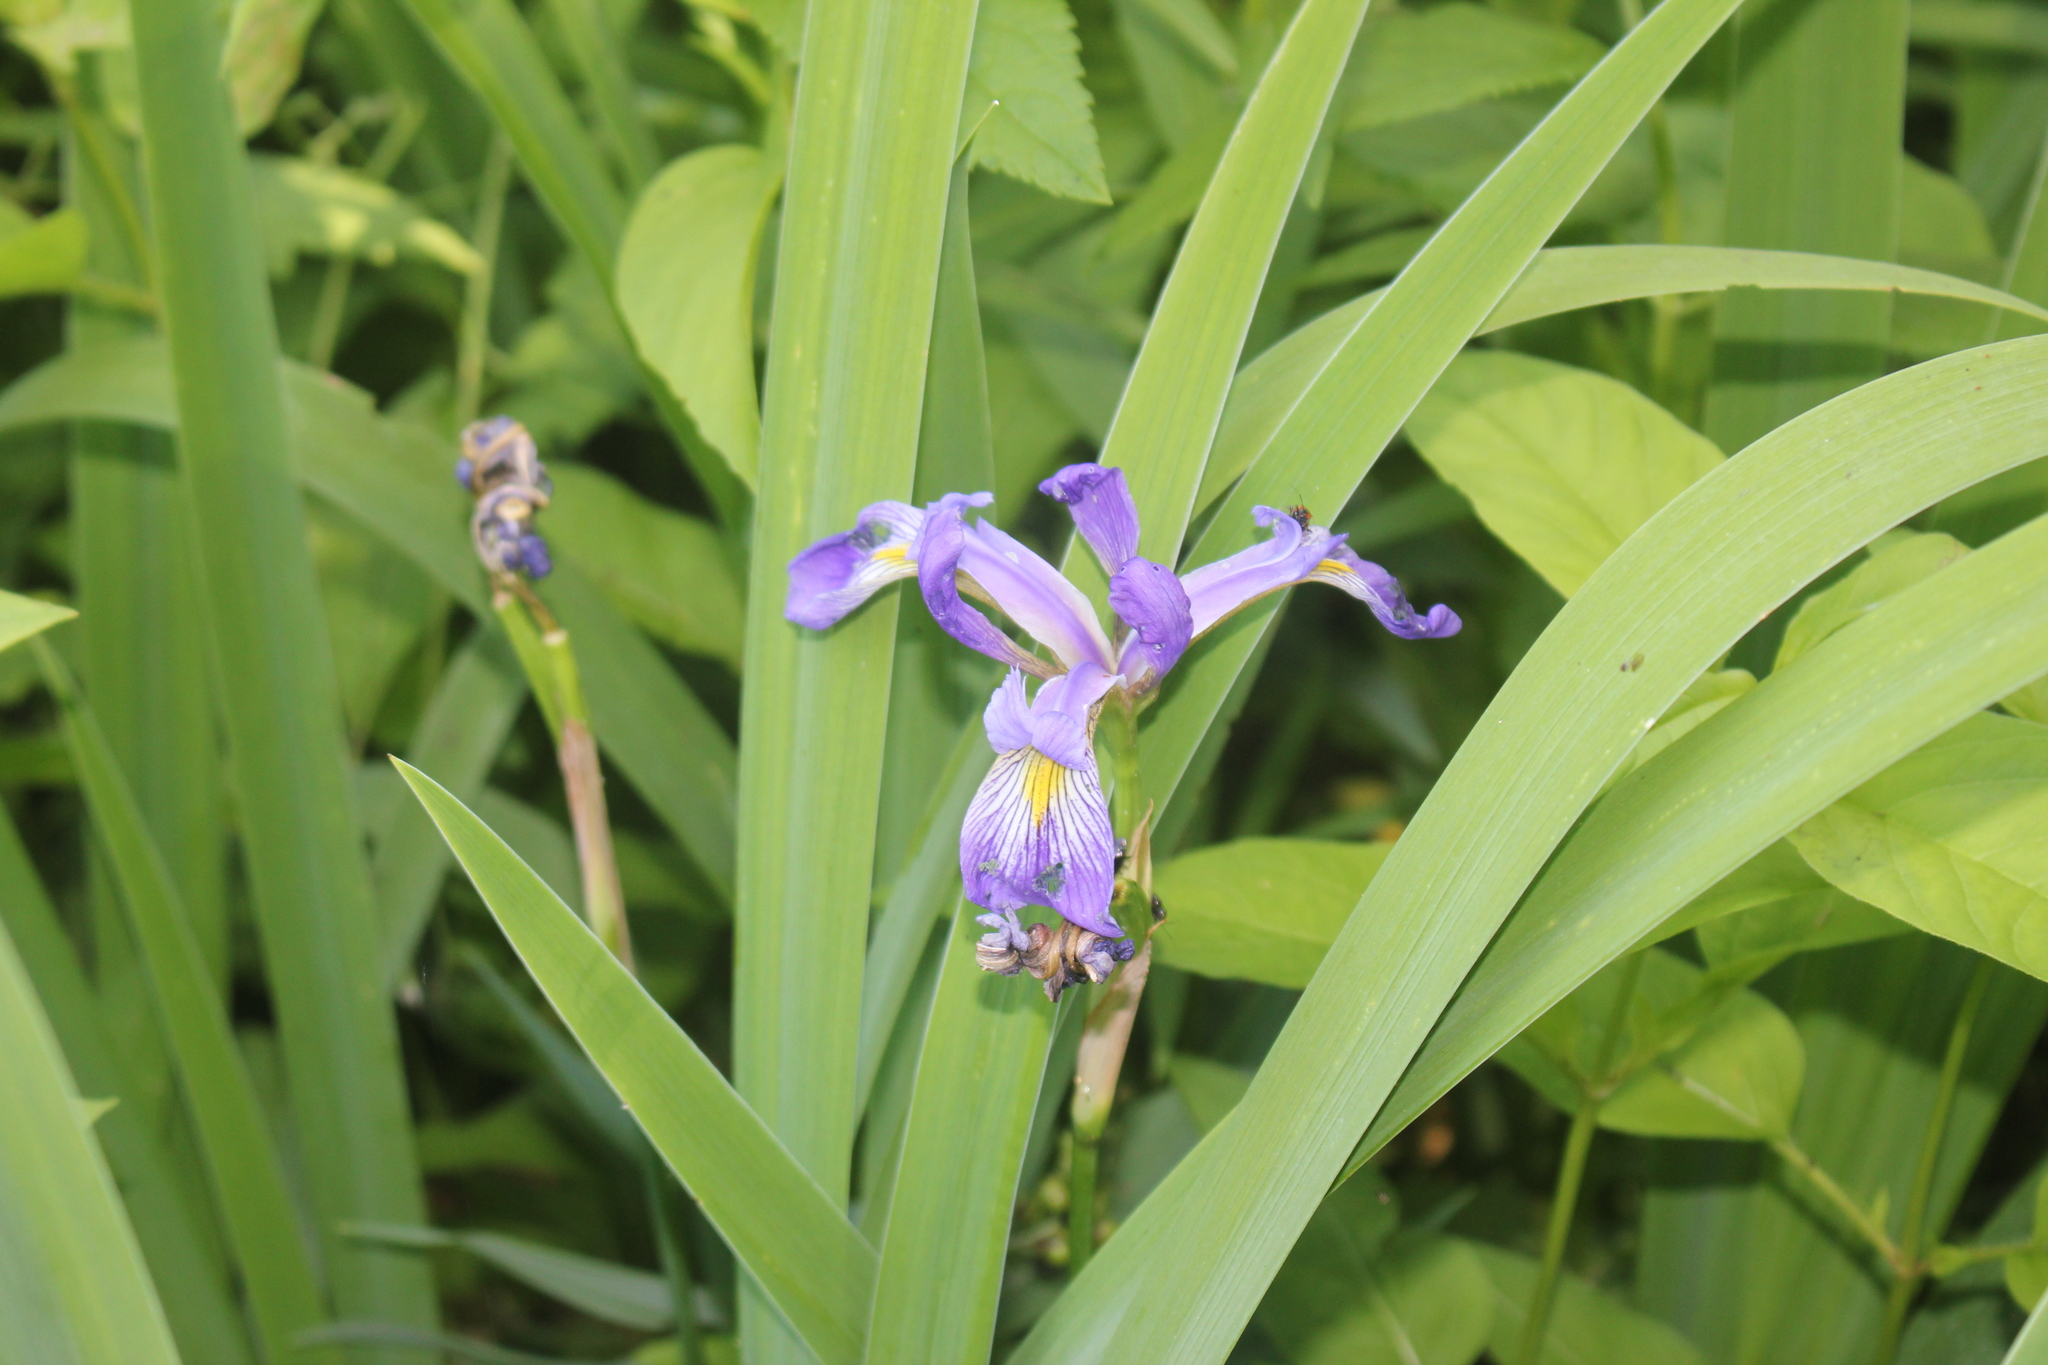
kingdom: Plantae
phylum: Tracheophyta
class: Liliopsida
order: Asparagales
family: Iridaceae
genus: Iris
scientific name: Iris virginica
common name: Southern blue flag
